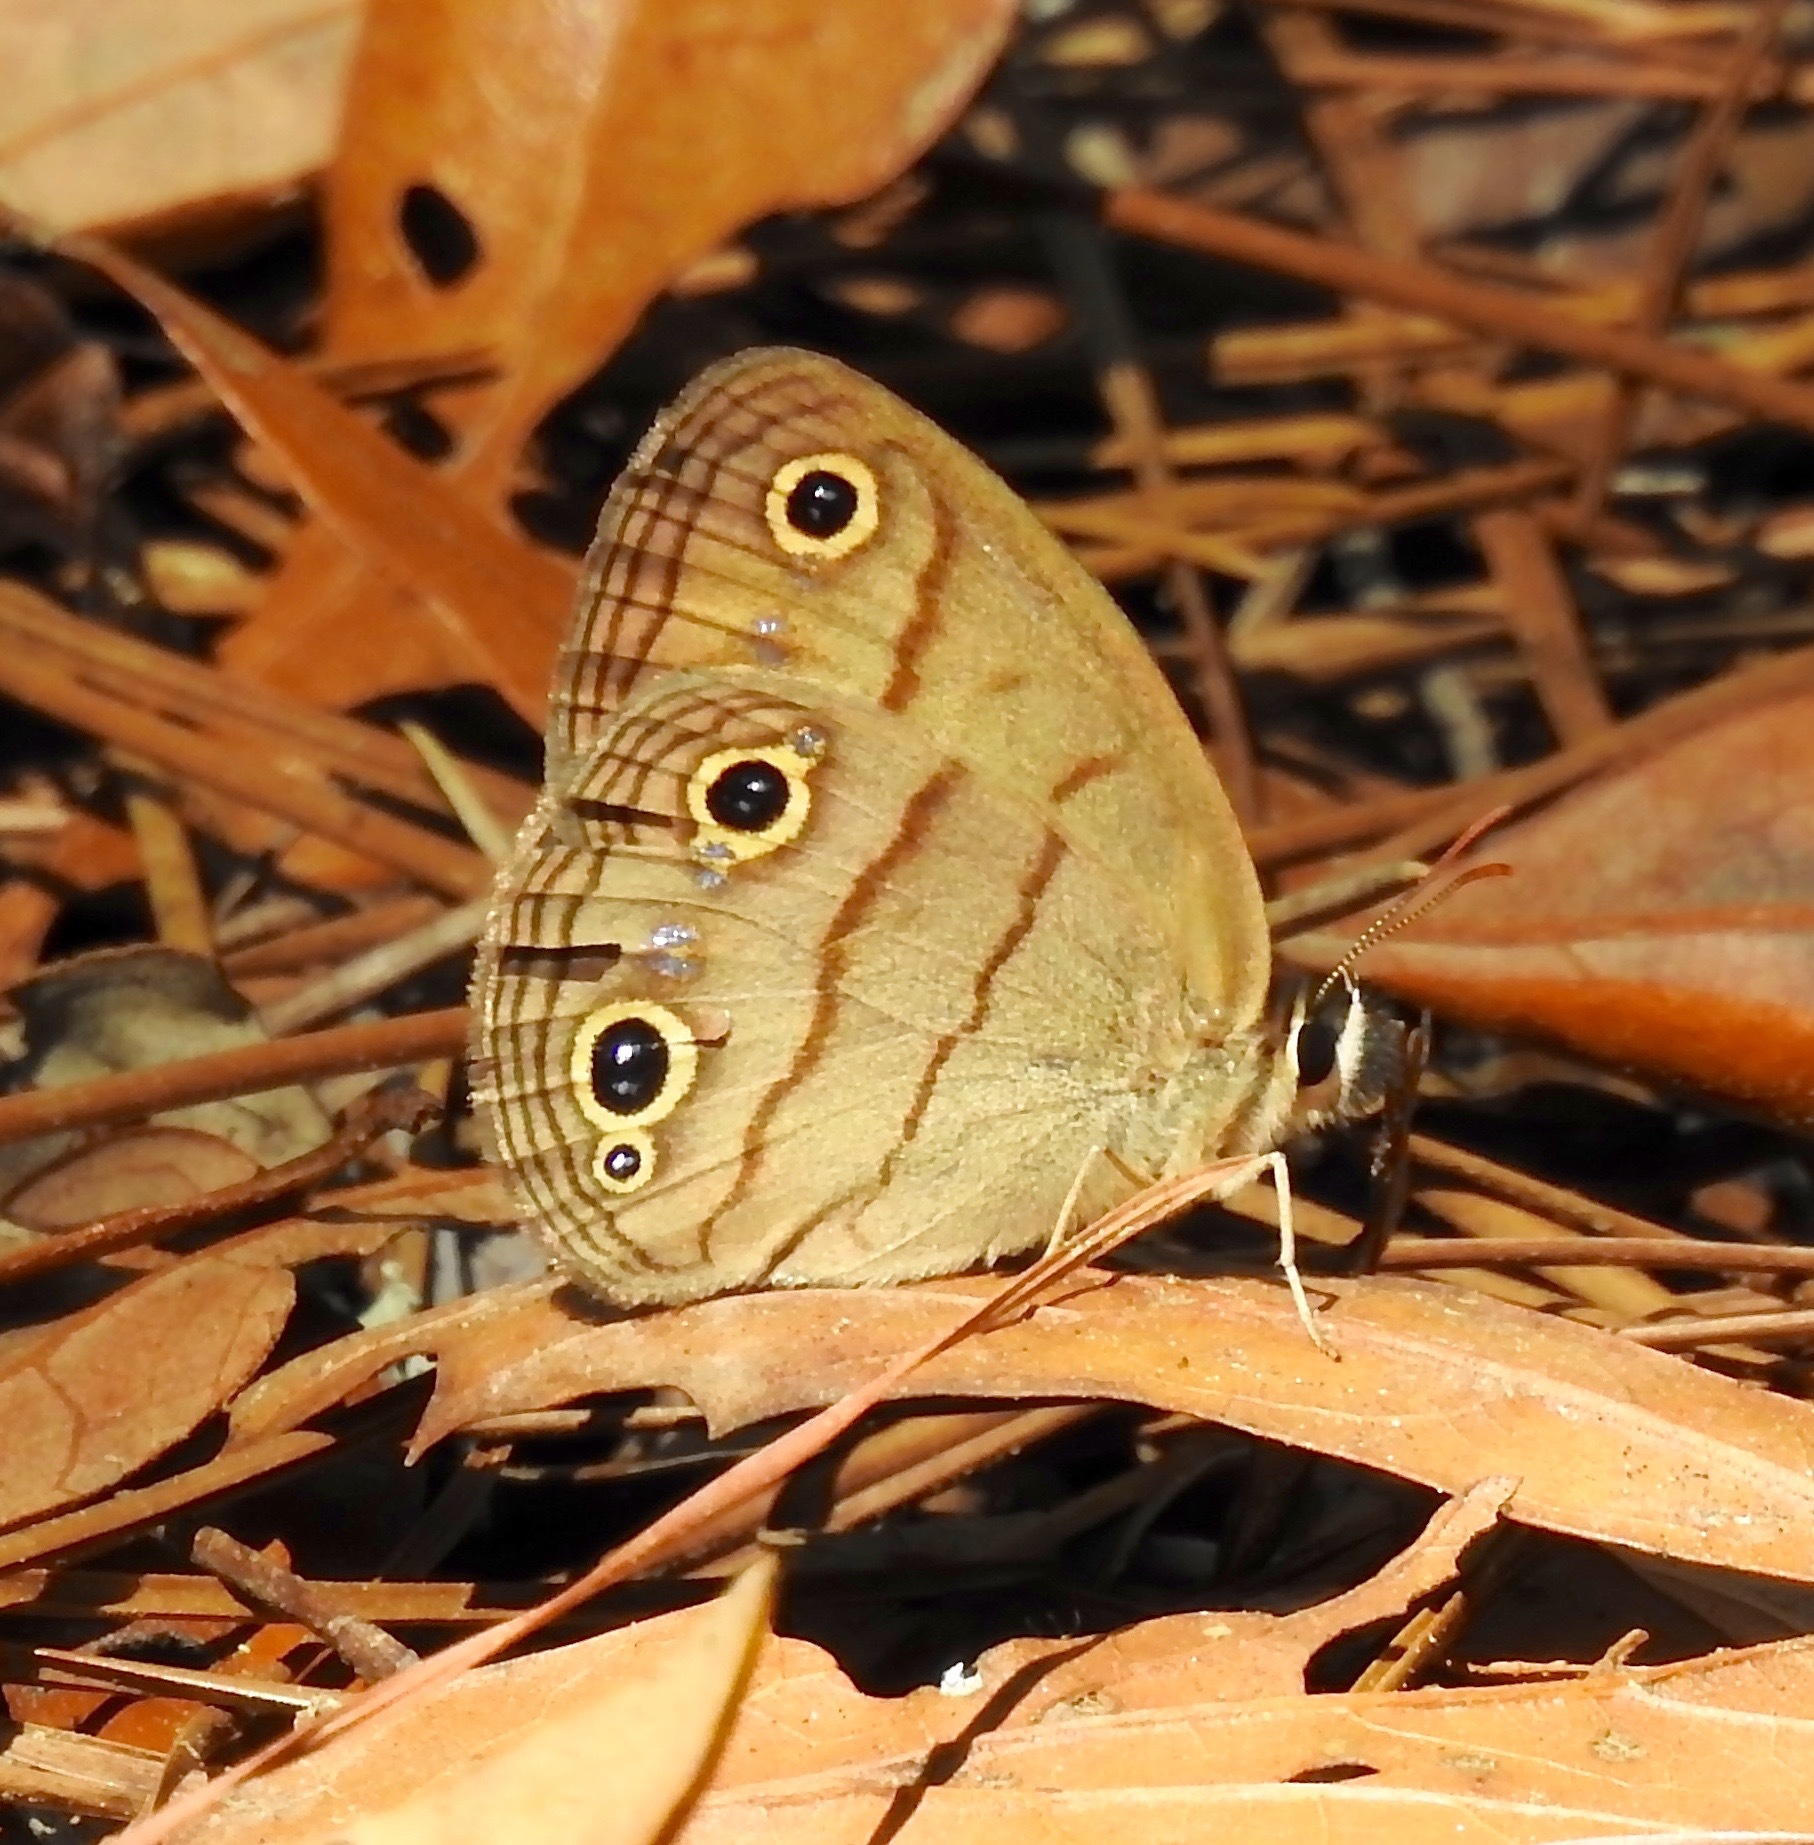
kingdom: Animalia
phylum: Arthropoda
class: Insecta
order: Lepidoptera
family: Nymphalidae
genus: Euptychia
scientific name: Euptychia cymela
